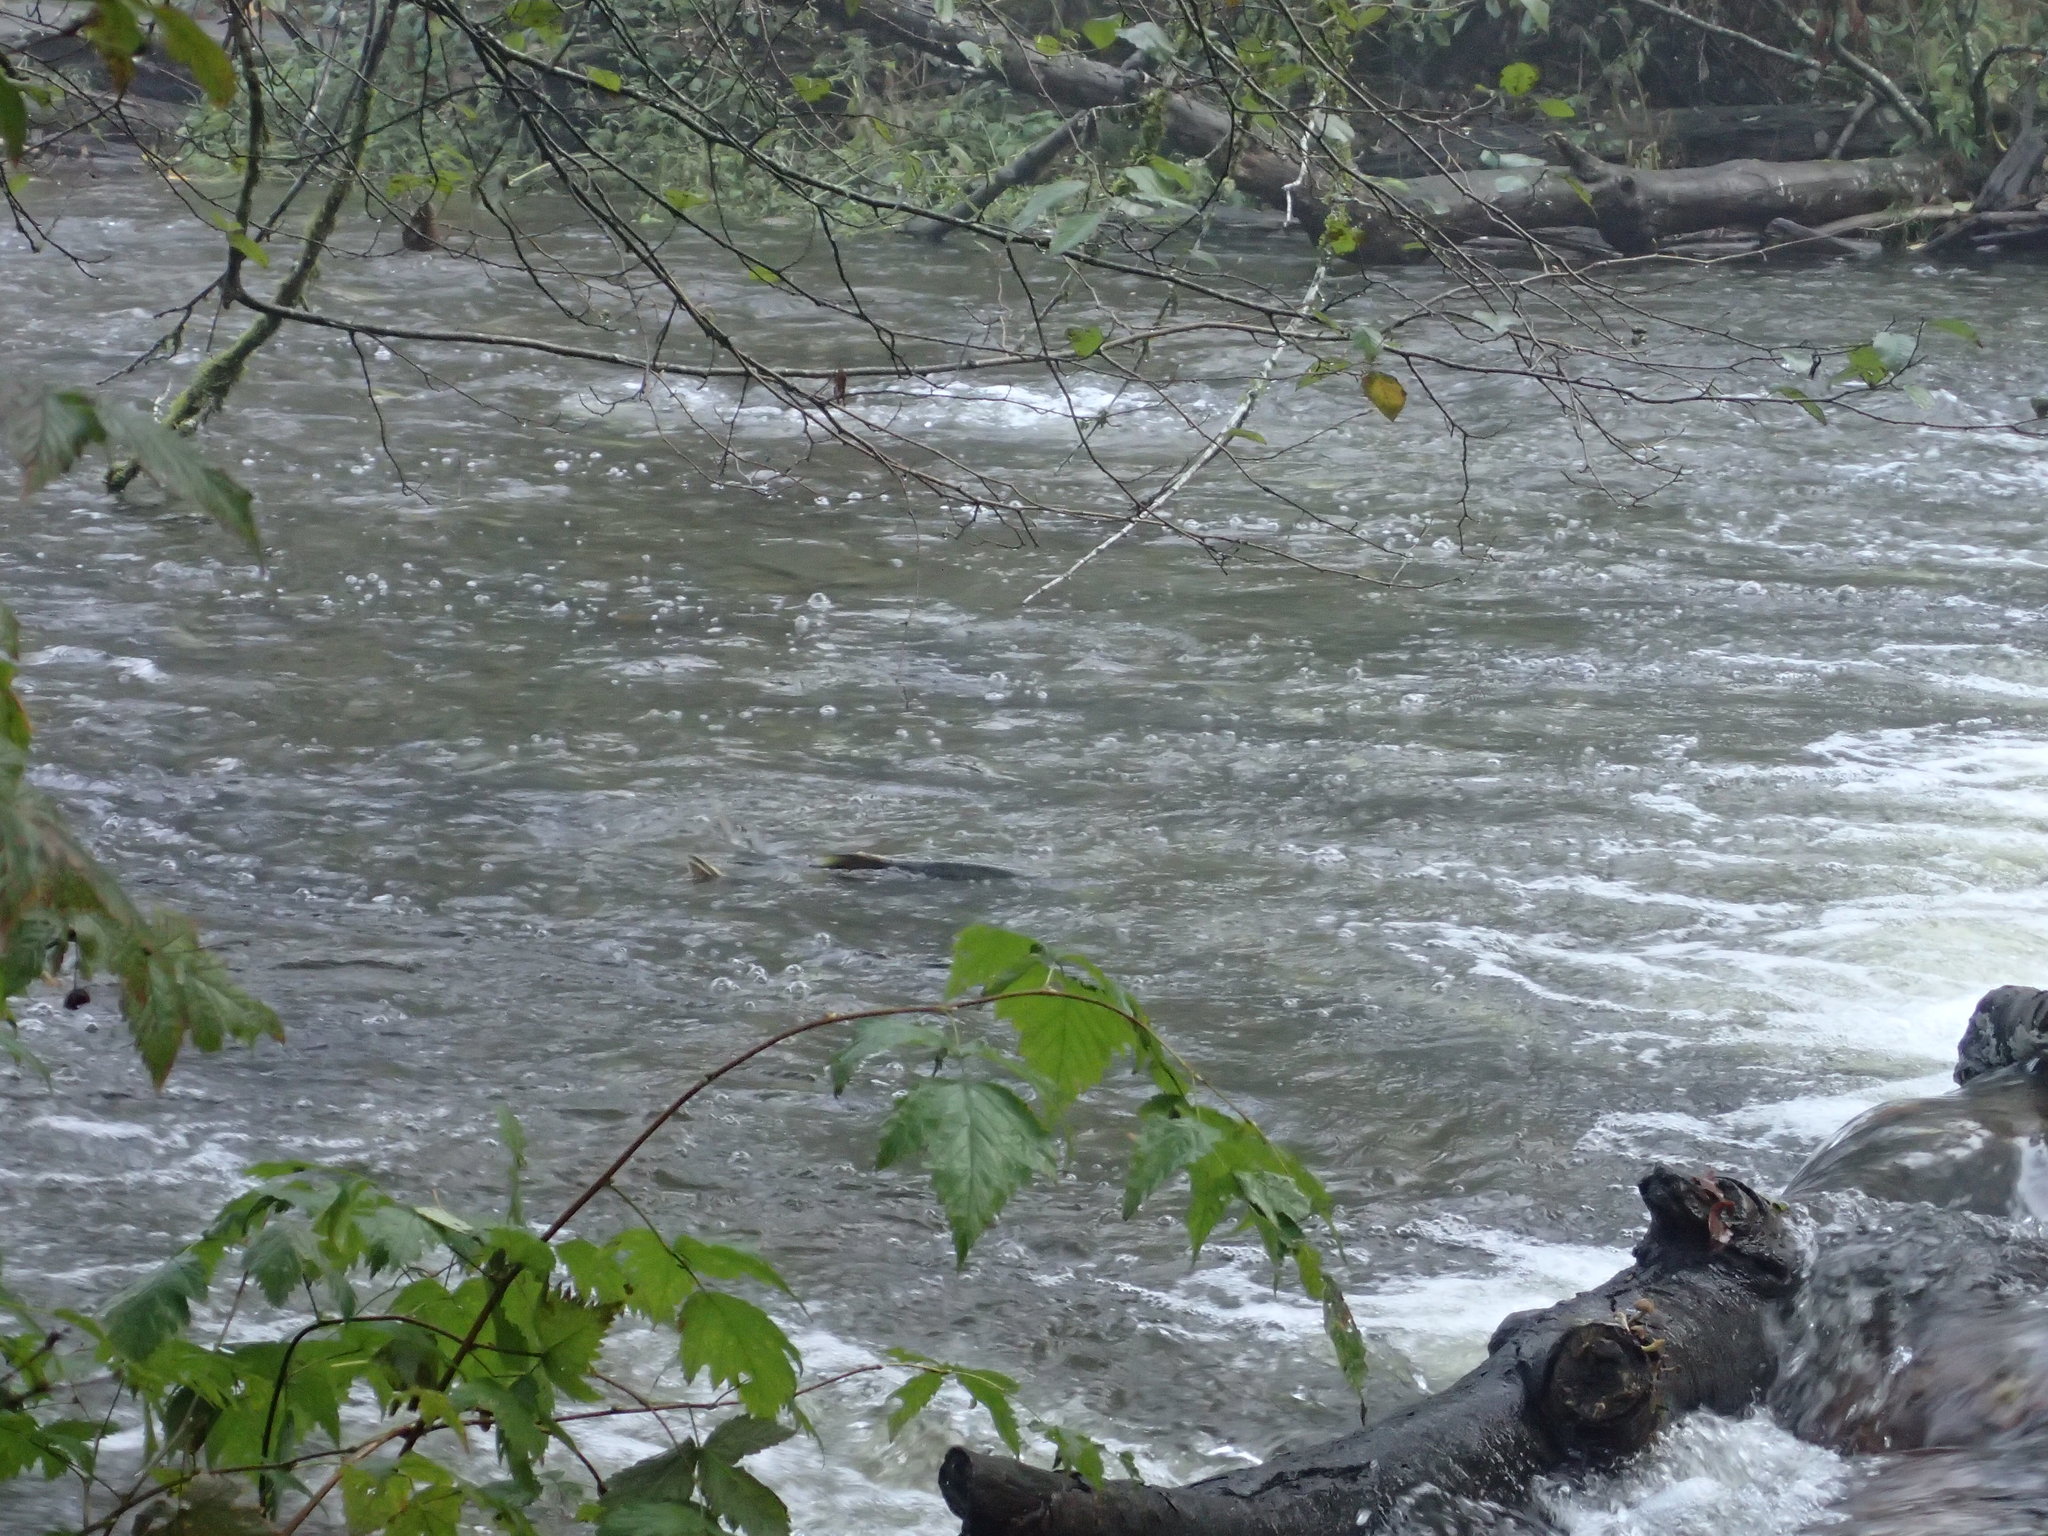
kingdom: Animalia
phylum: Chordata
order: Salmoniformes
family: Salmonidae
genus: Oncorhynchus
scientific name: Oncorhynchus keta
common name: Chum salmon
